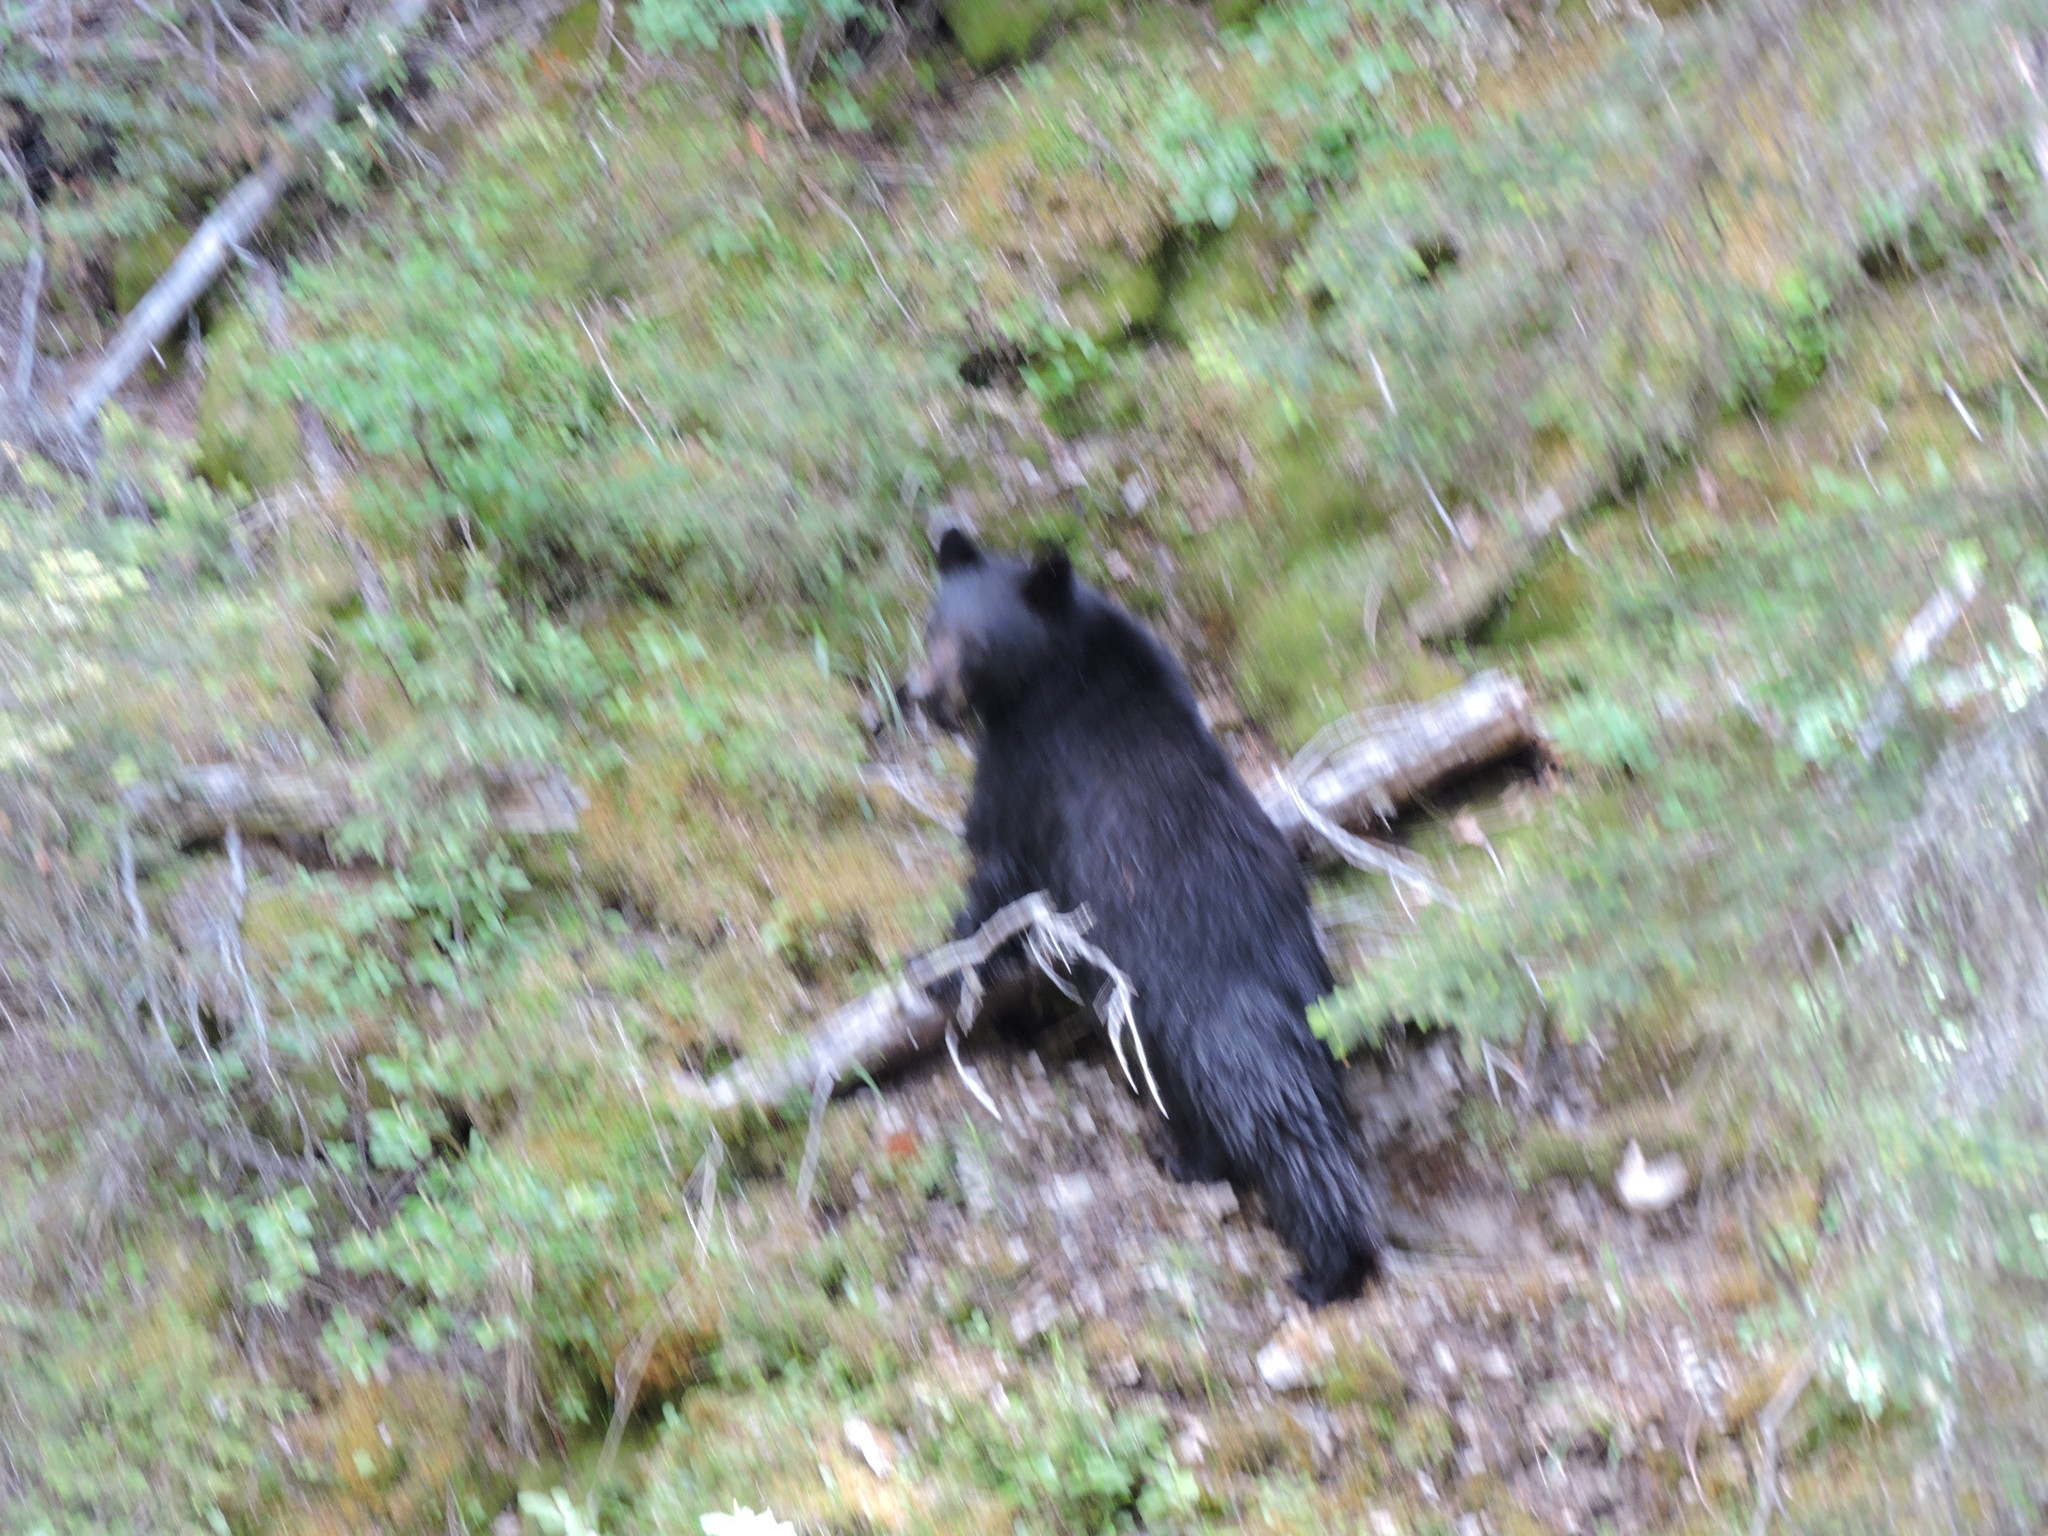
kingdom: Animalia
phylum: Chordata
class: Mammalia
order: Carnivora
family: Ursidae
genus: Ursus
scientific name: Ursus americanus
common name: American black bear
